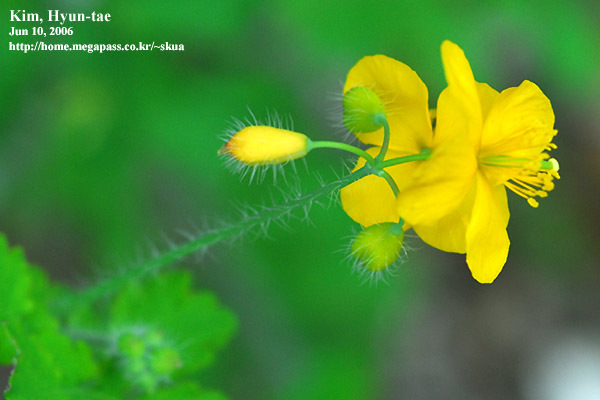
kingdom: Plantae
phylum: Tracheophyta
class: Magnoliopsida
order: Ranunculales
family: Papaveraceae
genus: Chelidonium
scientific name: Chelidonium majus
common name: Greater celandine
